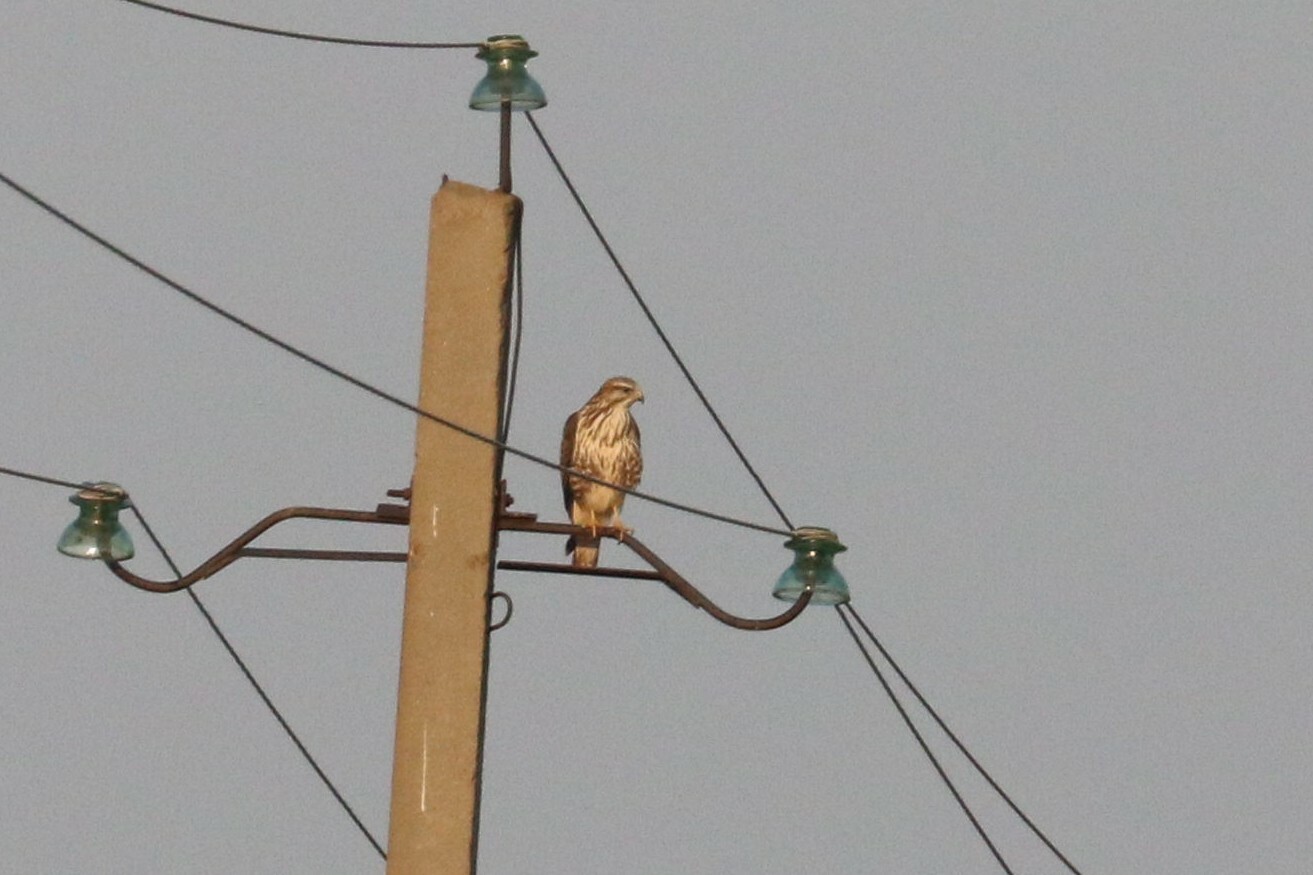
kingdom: Animalia
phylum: Chordata
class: Aves
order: Accipitriformes
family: Accipitridae
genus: Buteo
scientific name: Buteo buteo
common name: Common buzzard
